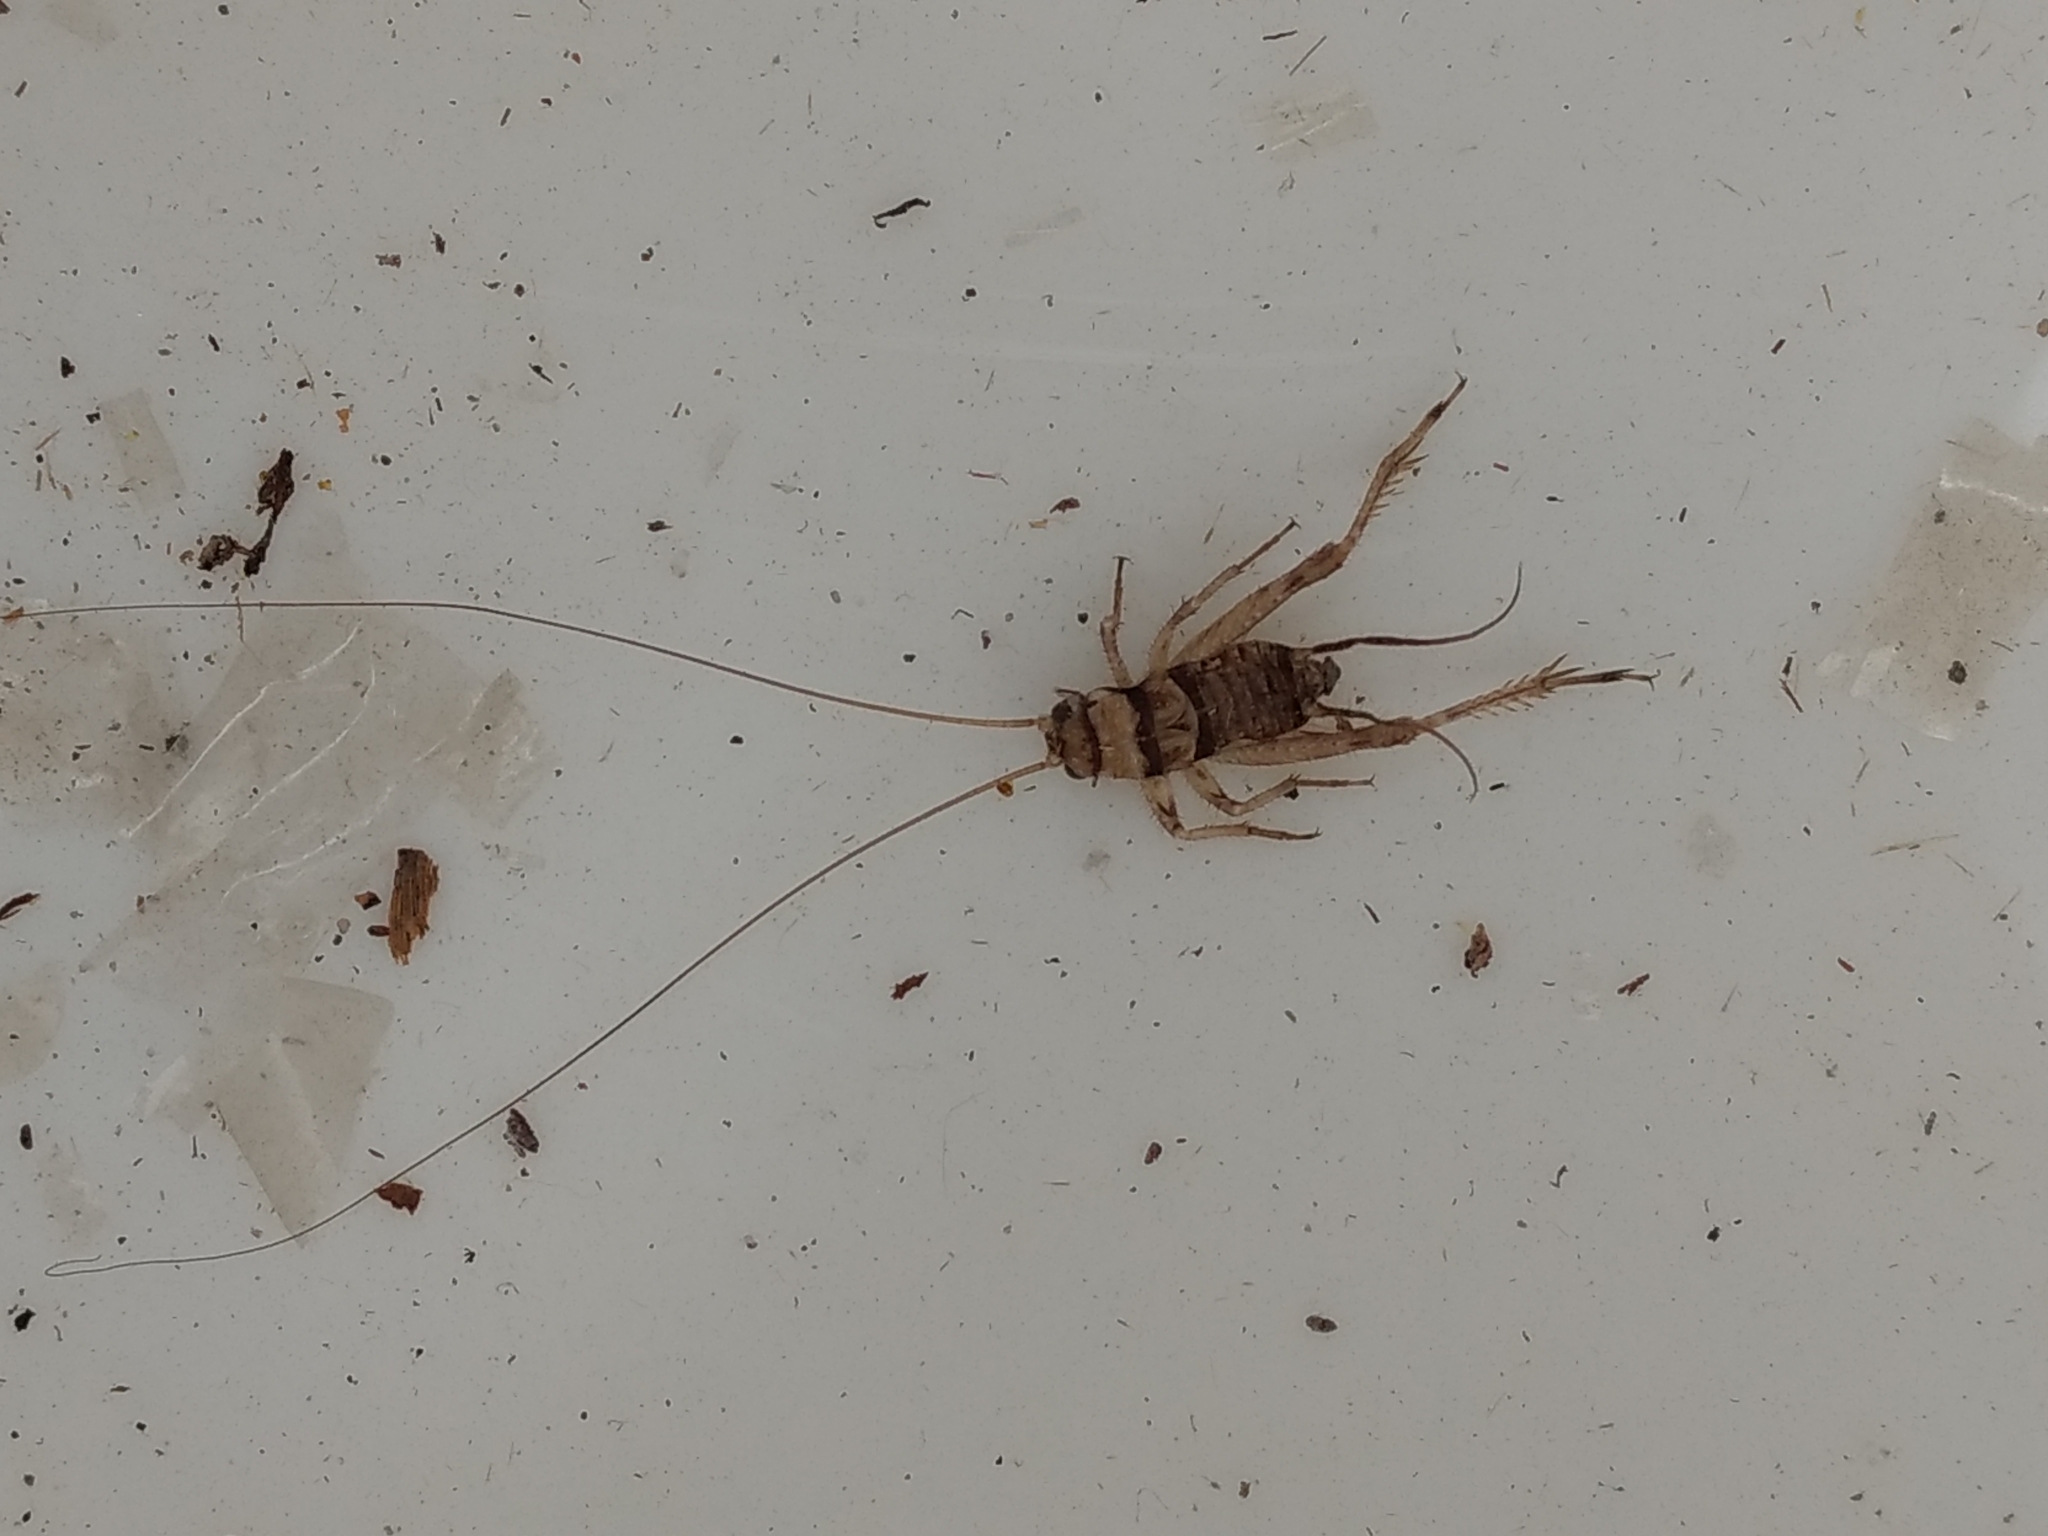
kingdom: Animalia
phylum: Arthropoda
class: Insecta
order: Orthoptera
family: Gryllidae
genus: Gryllodes
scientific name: Gryllodes sigillatus
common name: Tropical house cricket
